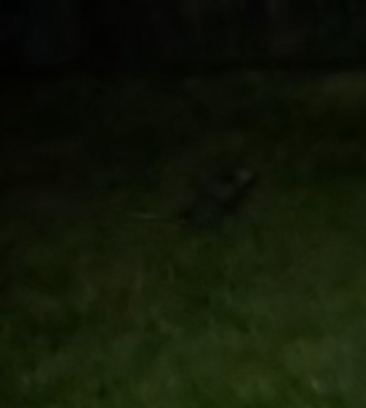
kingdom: Animalia
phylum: Chordata
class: Mammalia
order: Didelphimorphia
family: Didelphidae
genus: Didelphis
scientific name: Didelphis virginiana
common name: Virginia opossum
